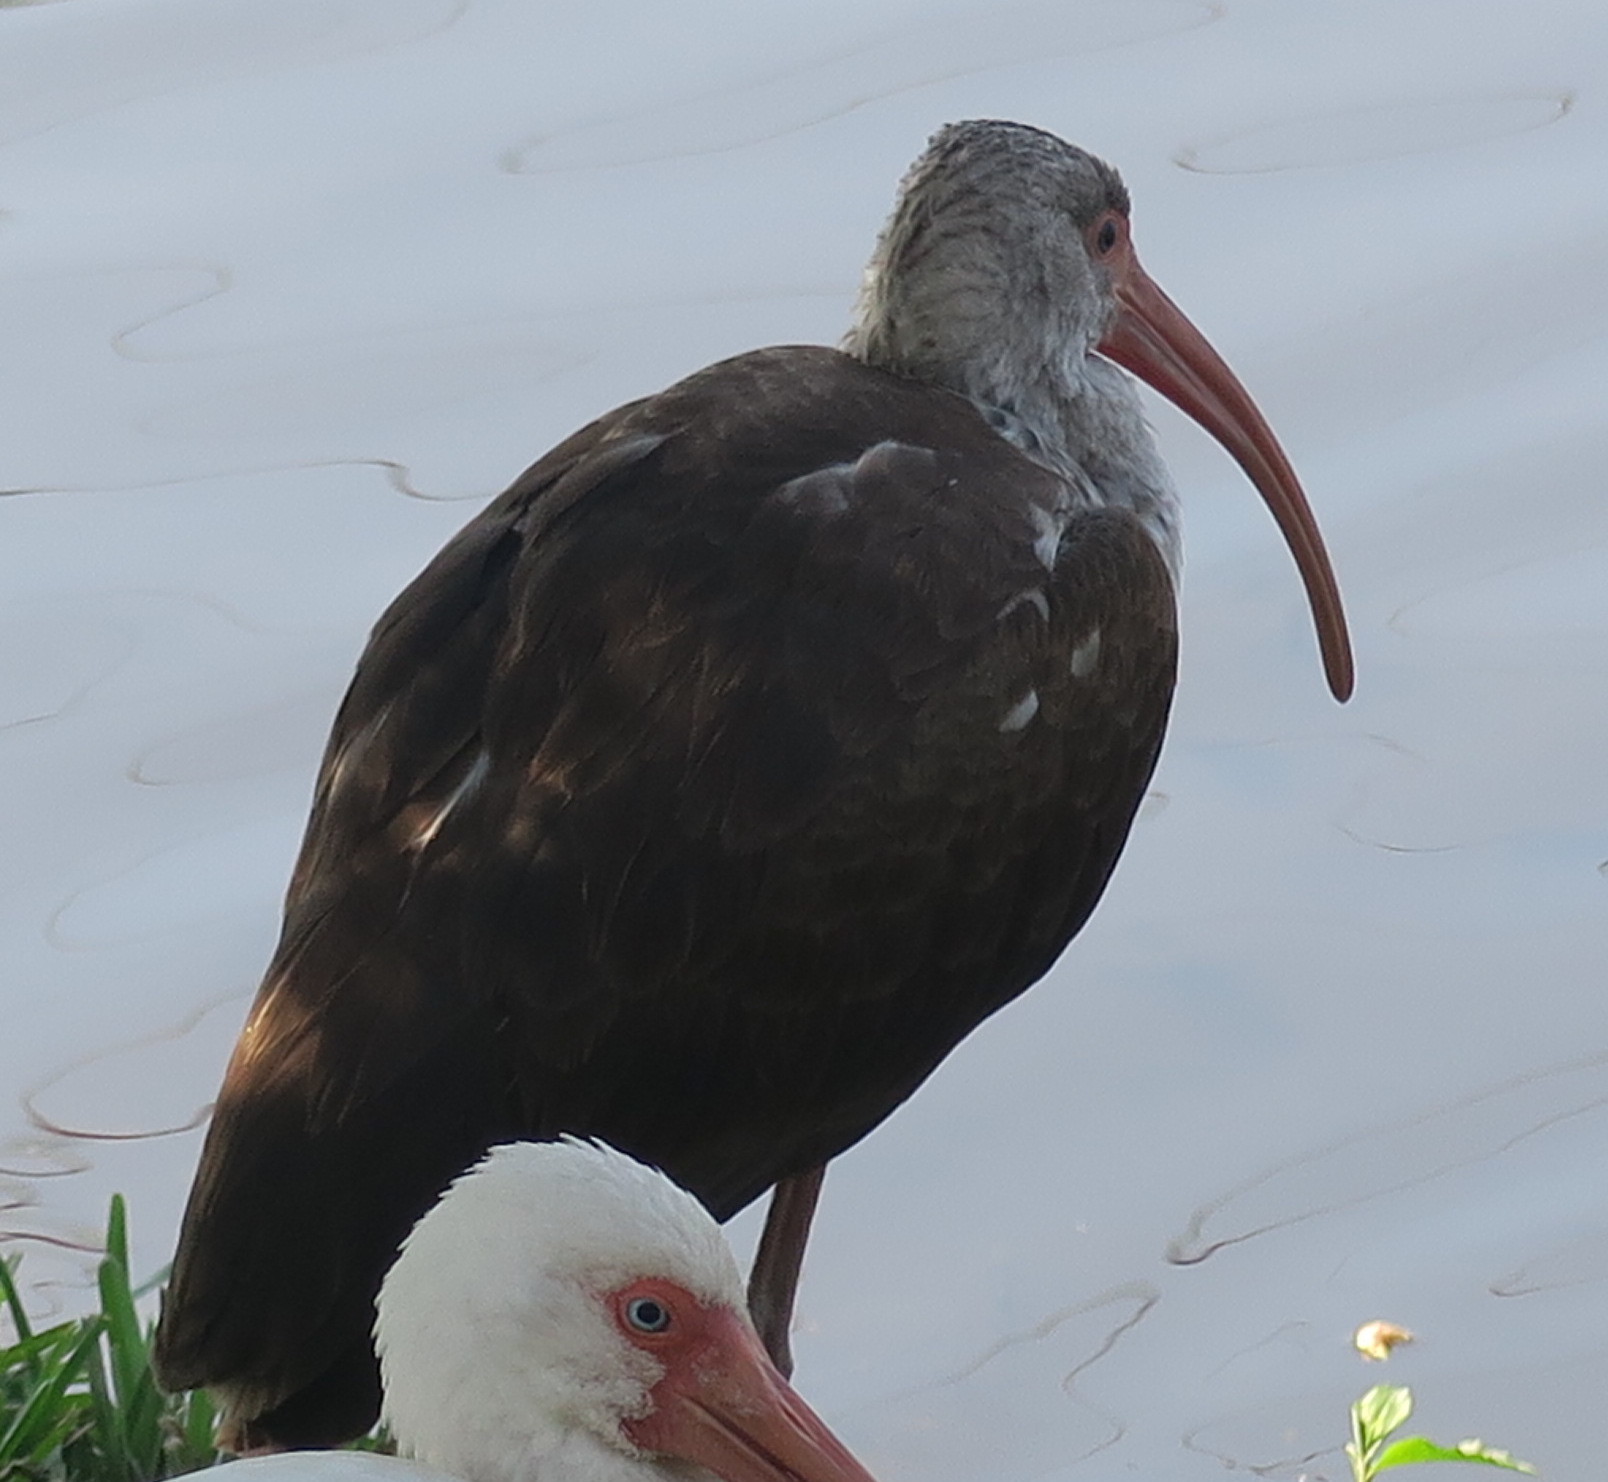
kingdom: Animalia
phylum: Chordata
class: Aves
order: Pelecaniformes
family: Threskiornithidae
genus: Eudocimus
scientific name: Eudocimus albus
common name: White ibis
